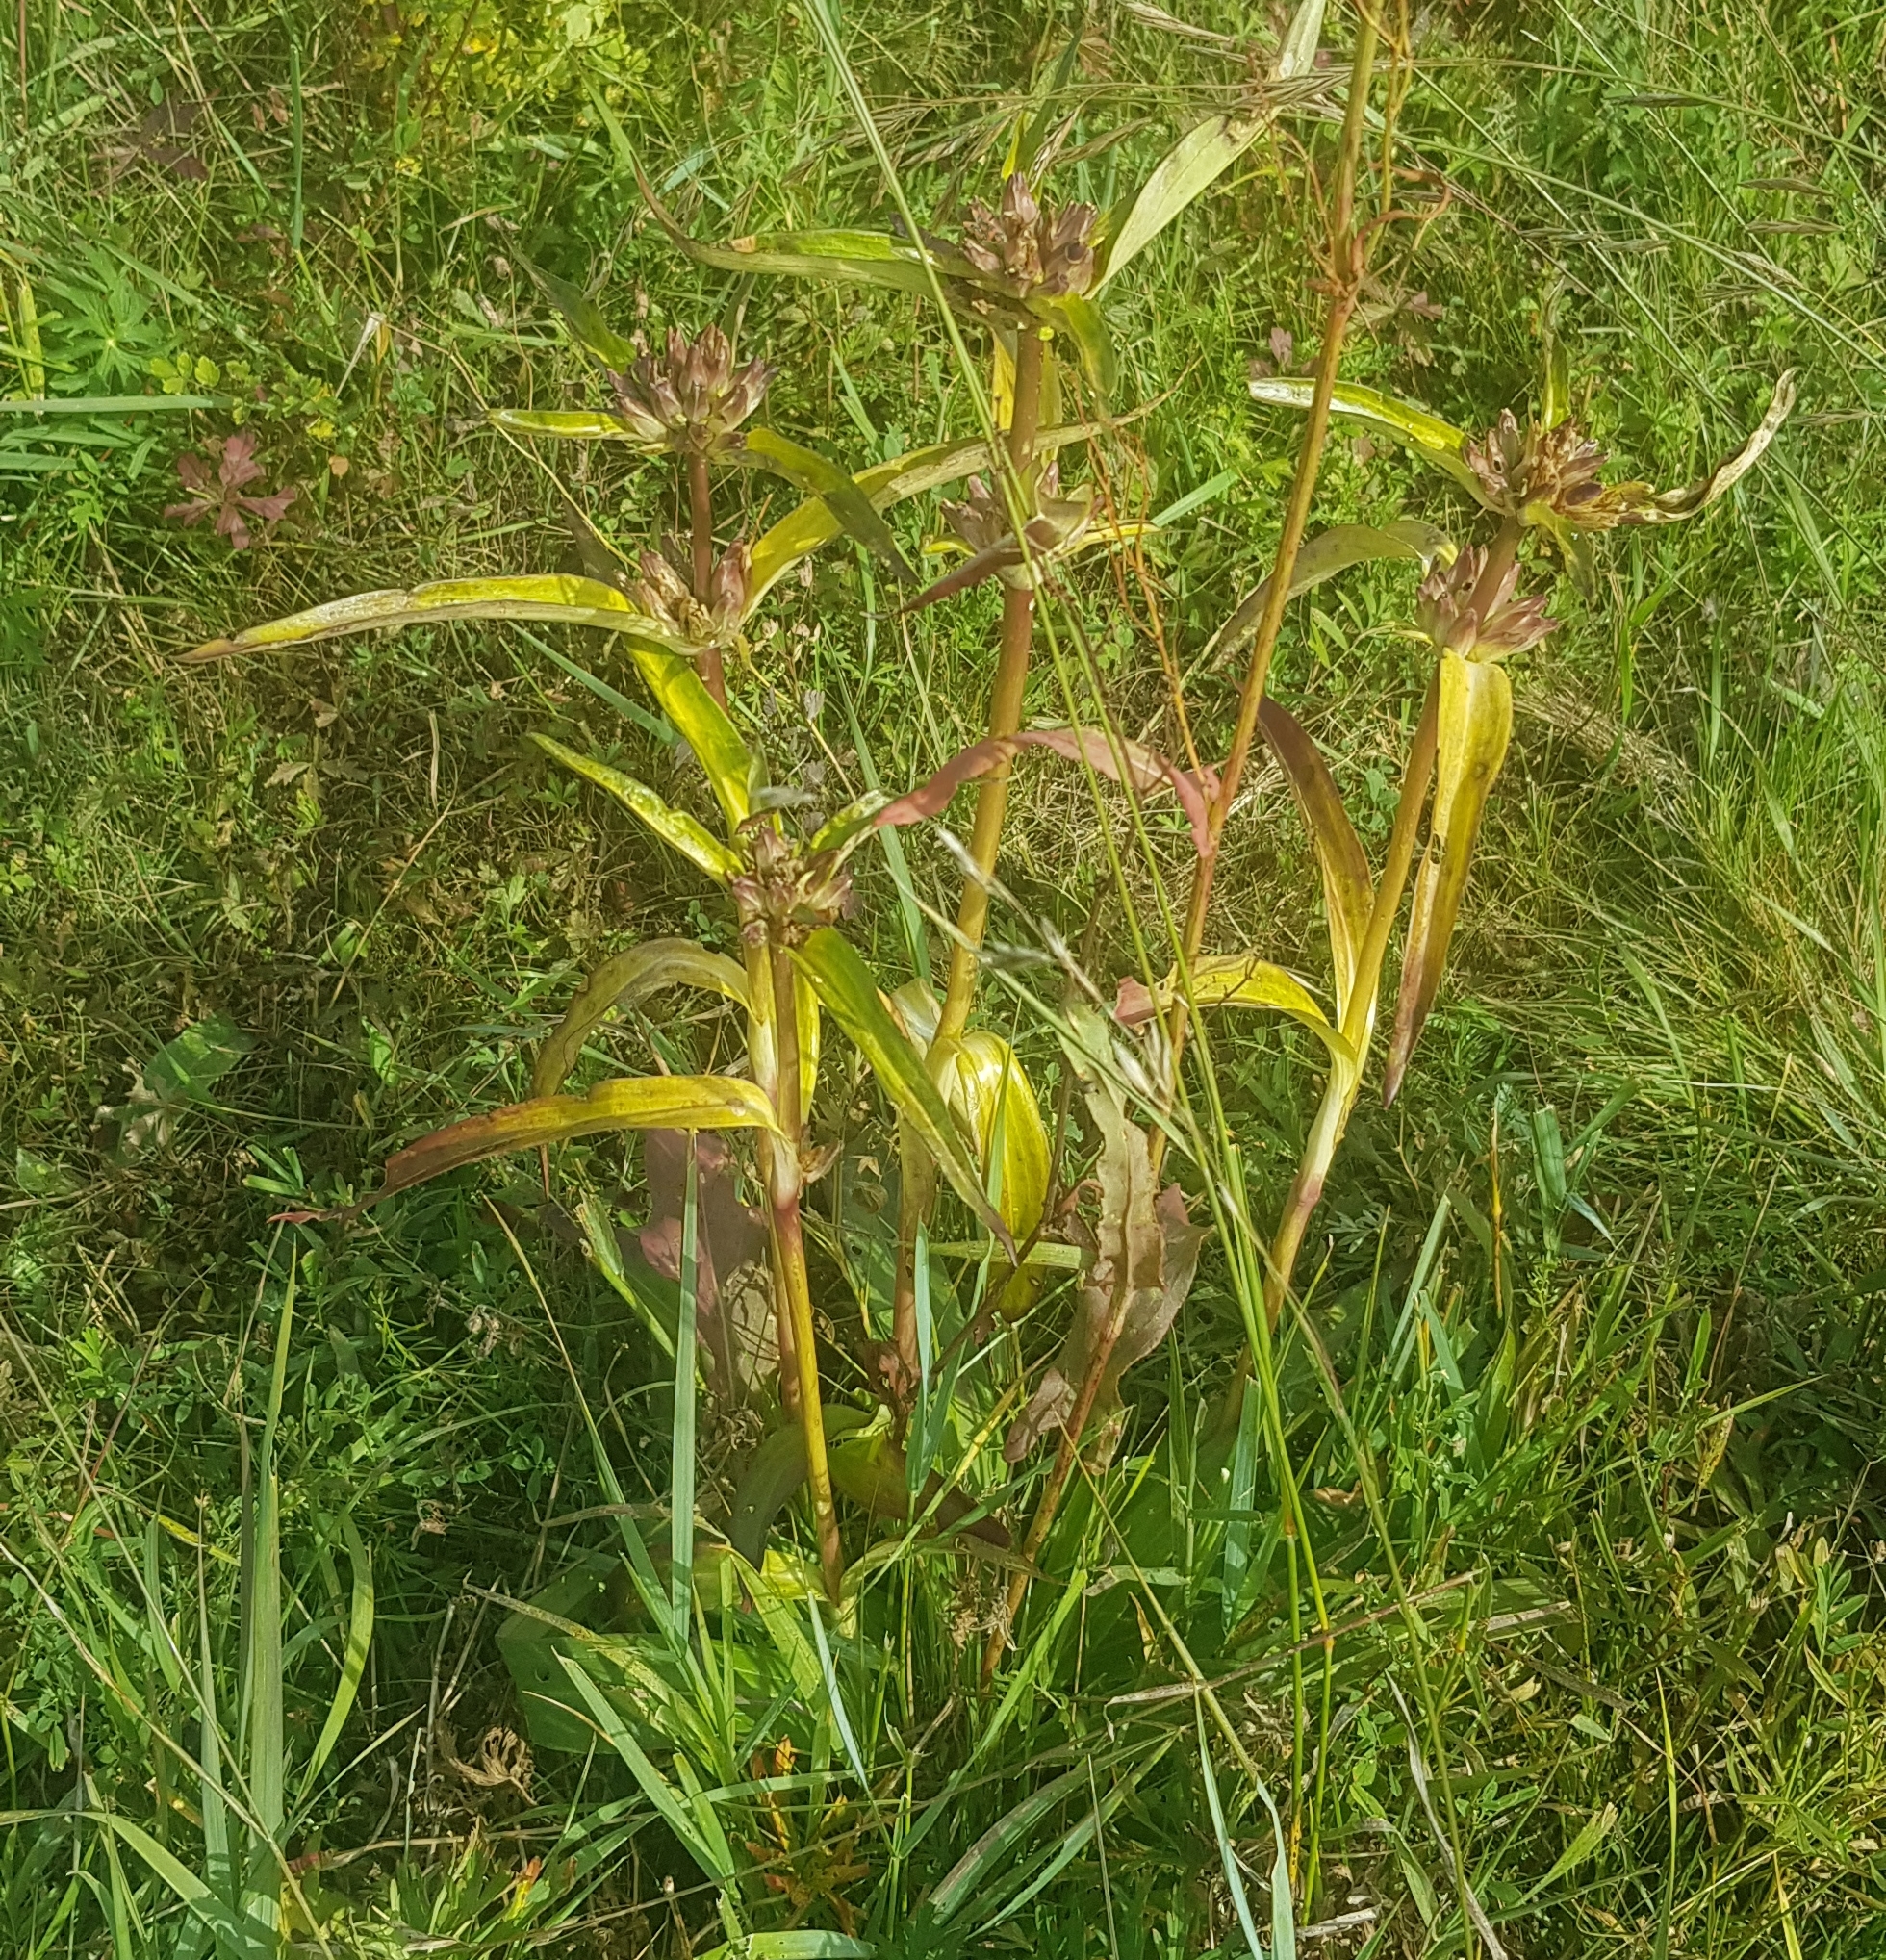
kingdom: Plantae
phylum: Tracheophyta
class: Magnoliopsida
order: Gentianales
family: Gentianaceae
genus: Gentiana
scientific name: Gentiana macrophylla
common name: Large-leaf gentian
